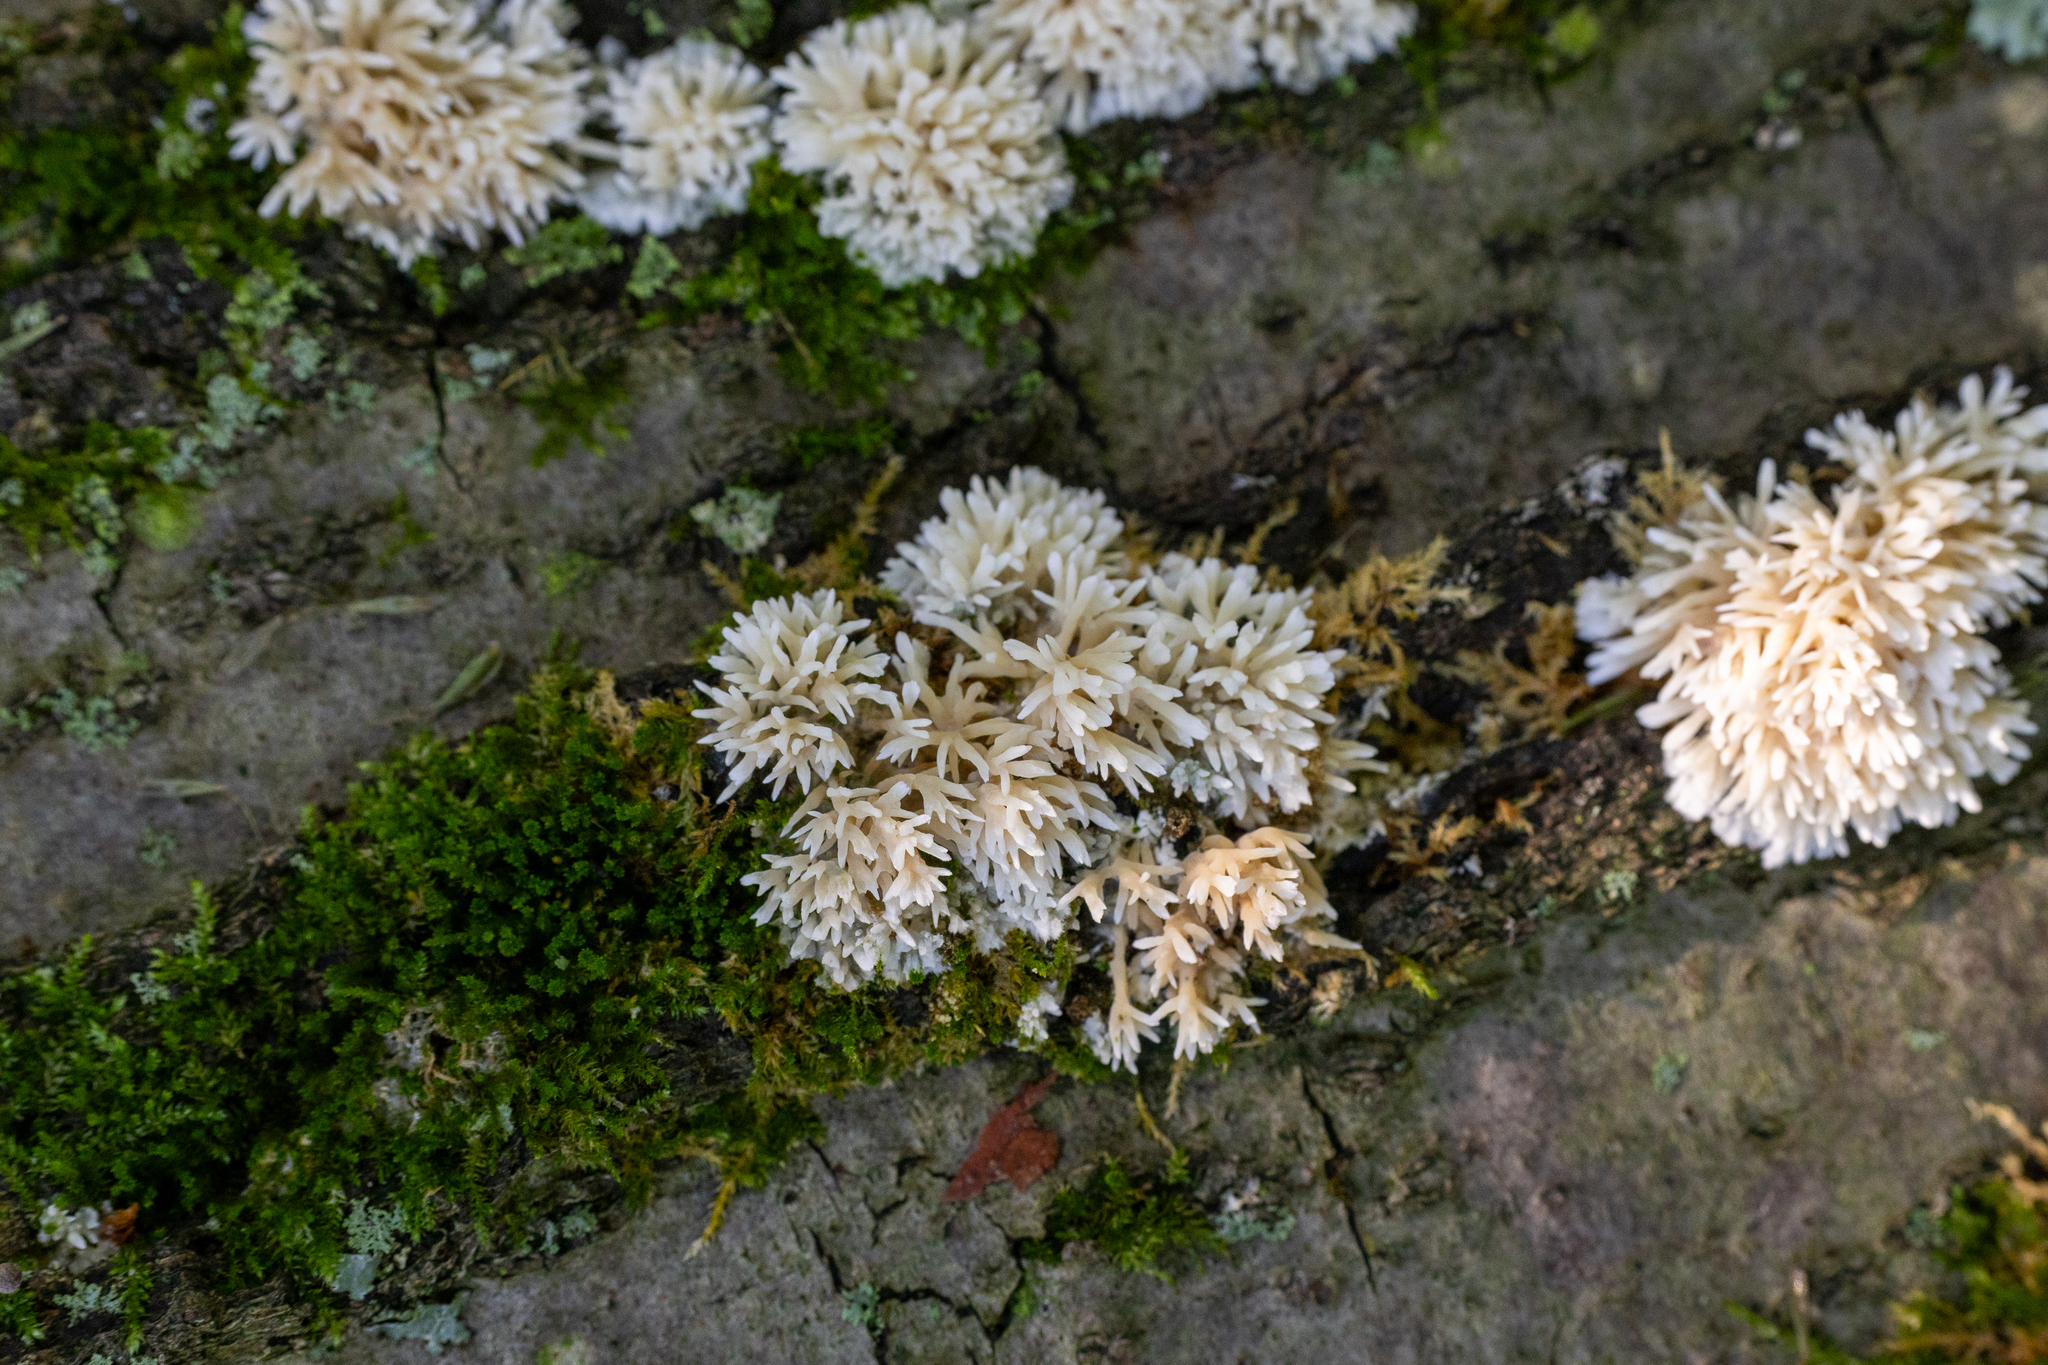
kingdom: Fungi
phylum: Basidiomycota
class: Agaricomycetes
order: Agaricales
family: Radulomycetaceae
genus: Radulomyces
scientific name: Radulomyces copelandii
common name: Asian beauty
